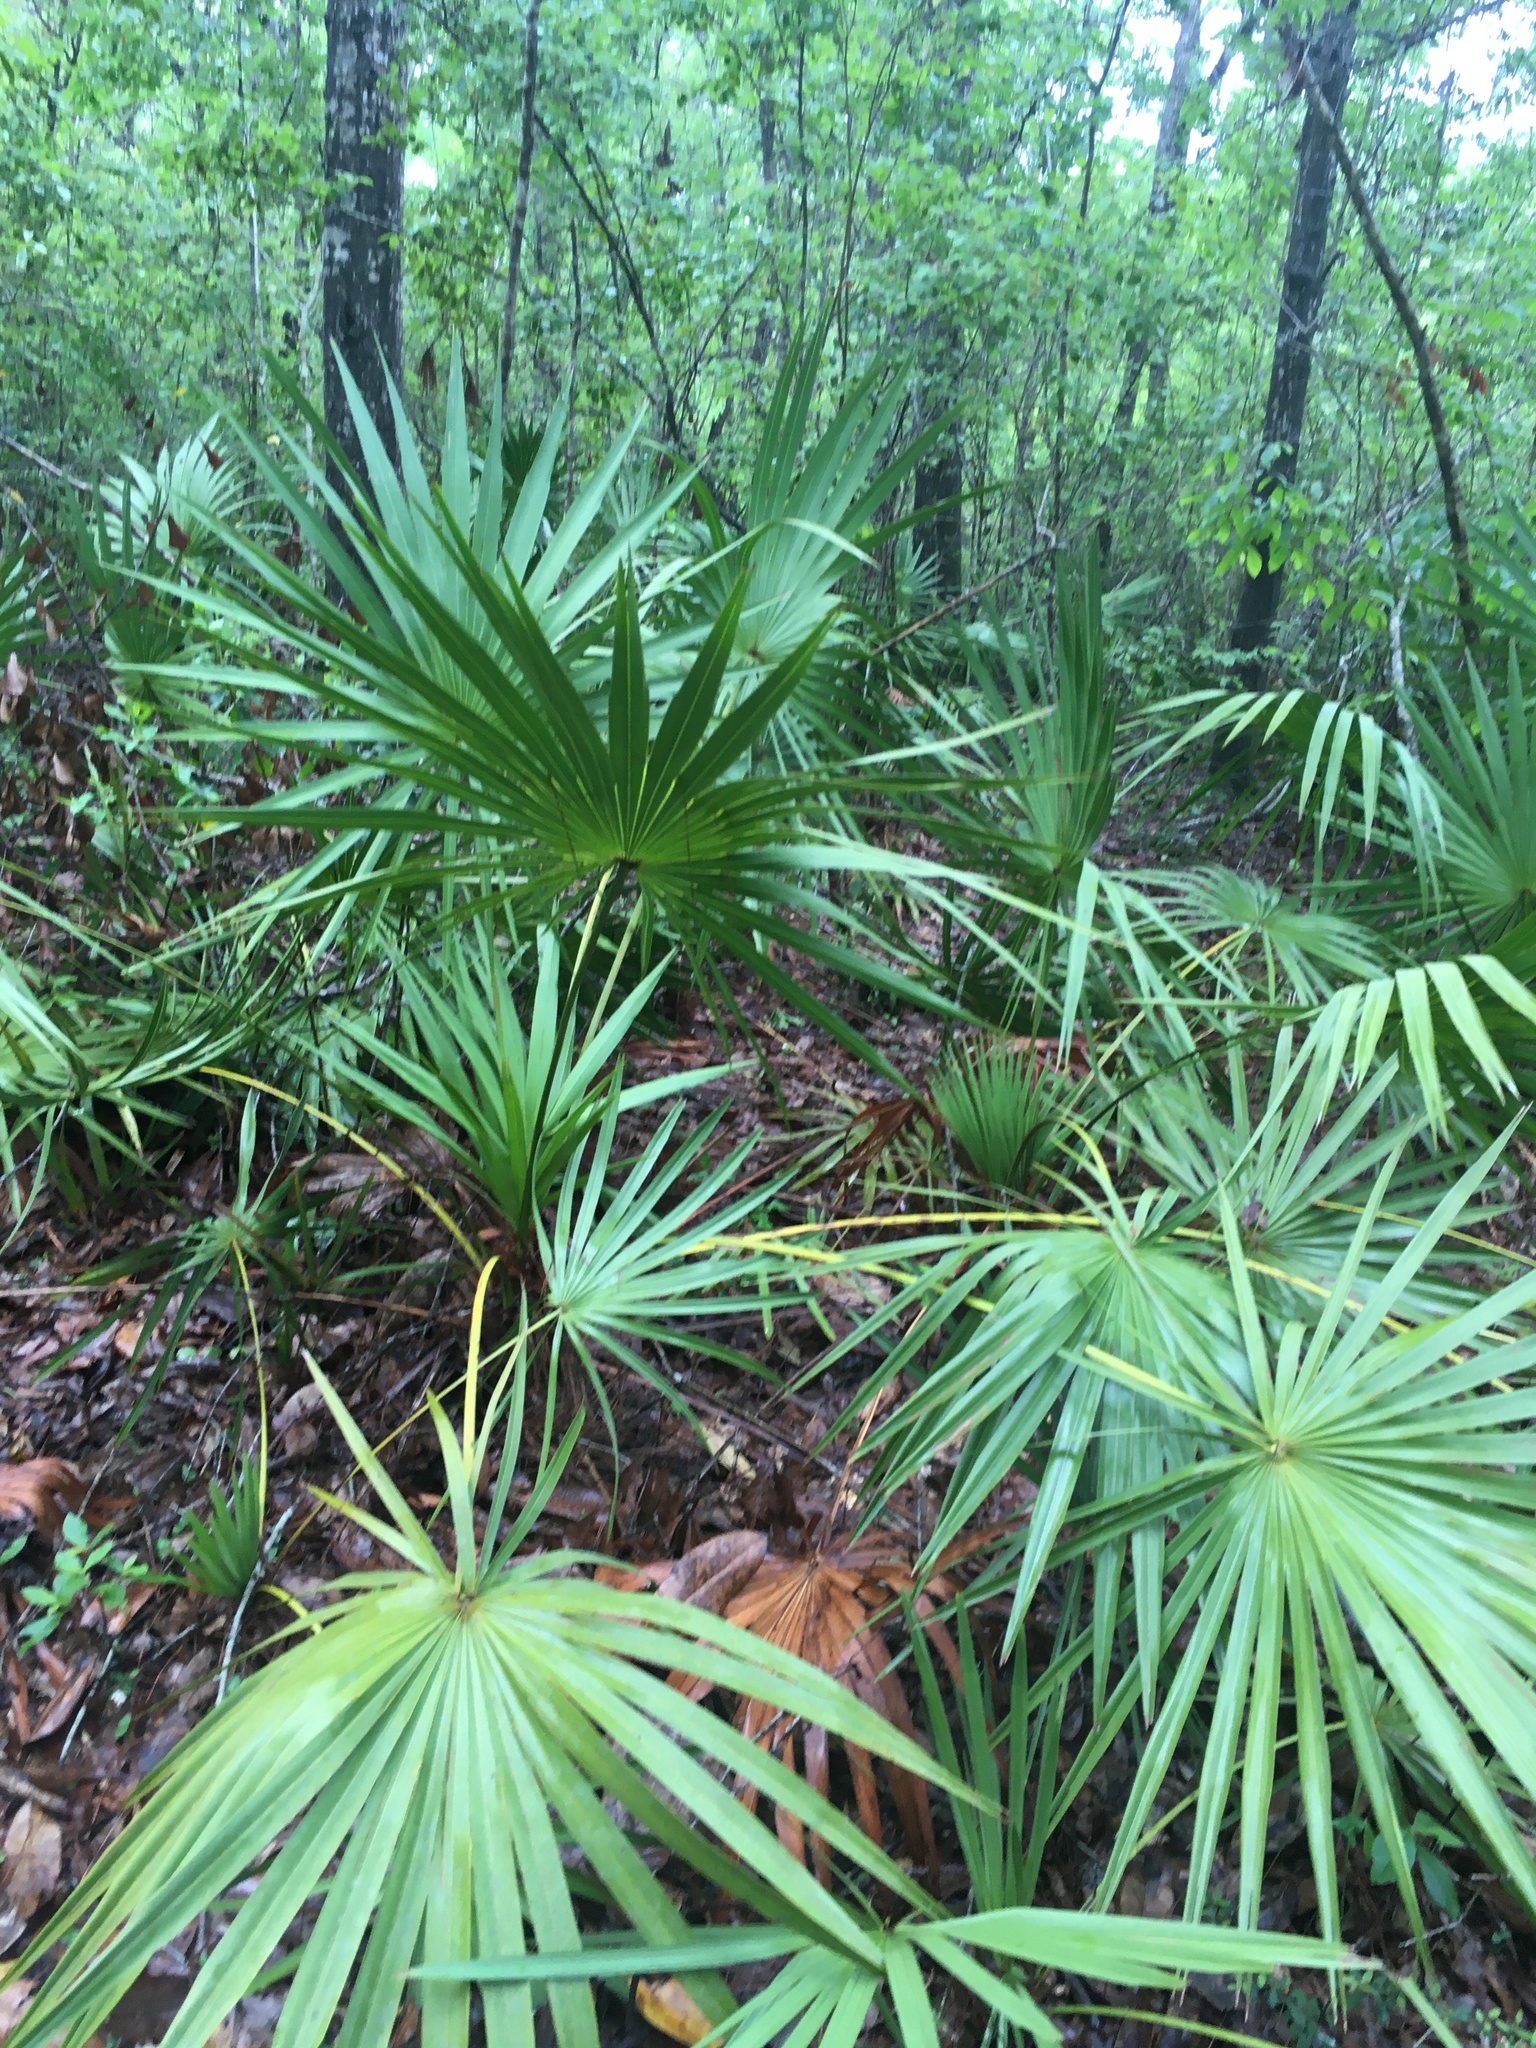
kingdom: Plantae
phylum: Tracheophyta
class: Liliopsida
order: Arecales
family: Arecaceae
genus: Serenoa
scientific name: Serenoa repens
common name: Saw-palmetto
